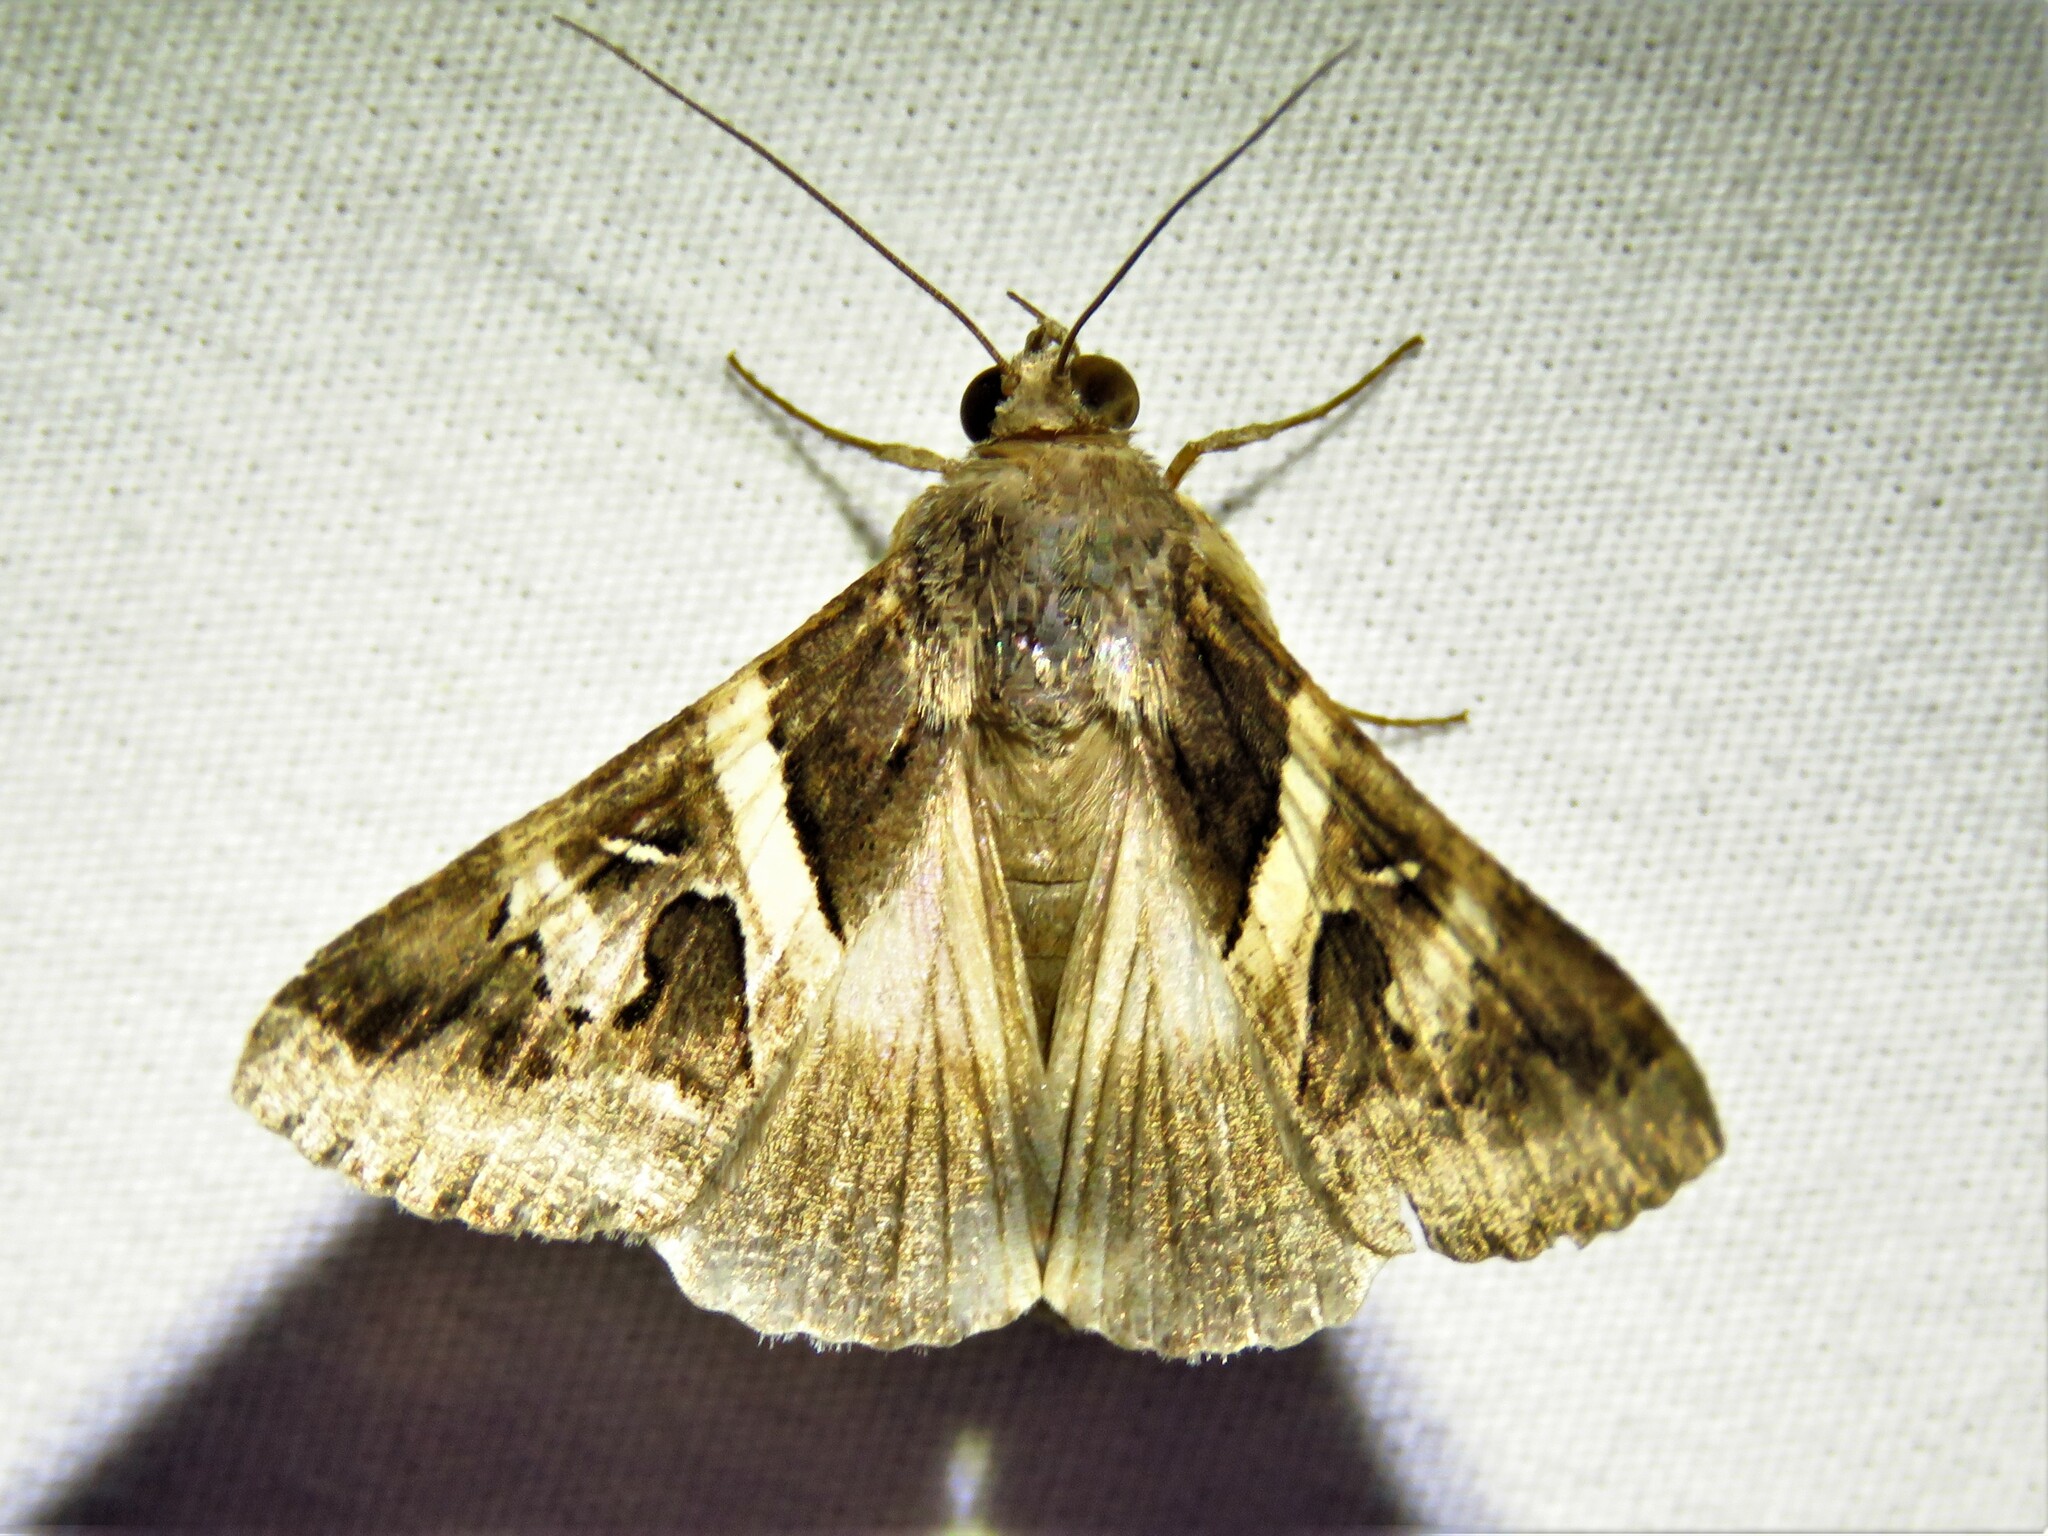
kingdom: Animalia
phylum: Arthropoda
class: Insecta
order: Lepidoptera
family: Erebidae
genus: Melipotis
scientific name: Melipotis indomita
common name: Moth
